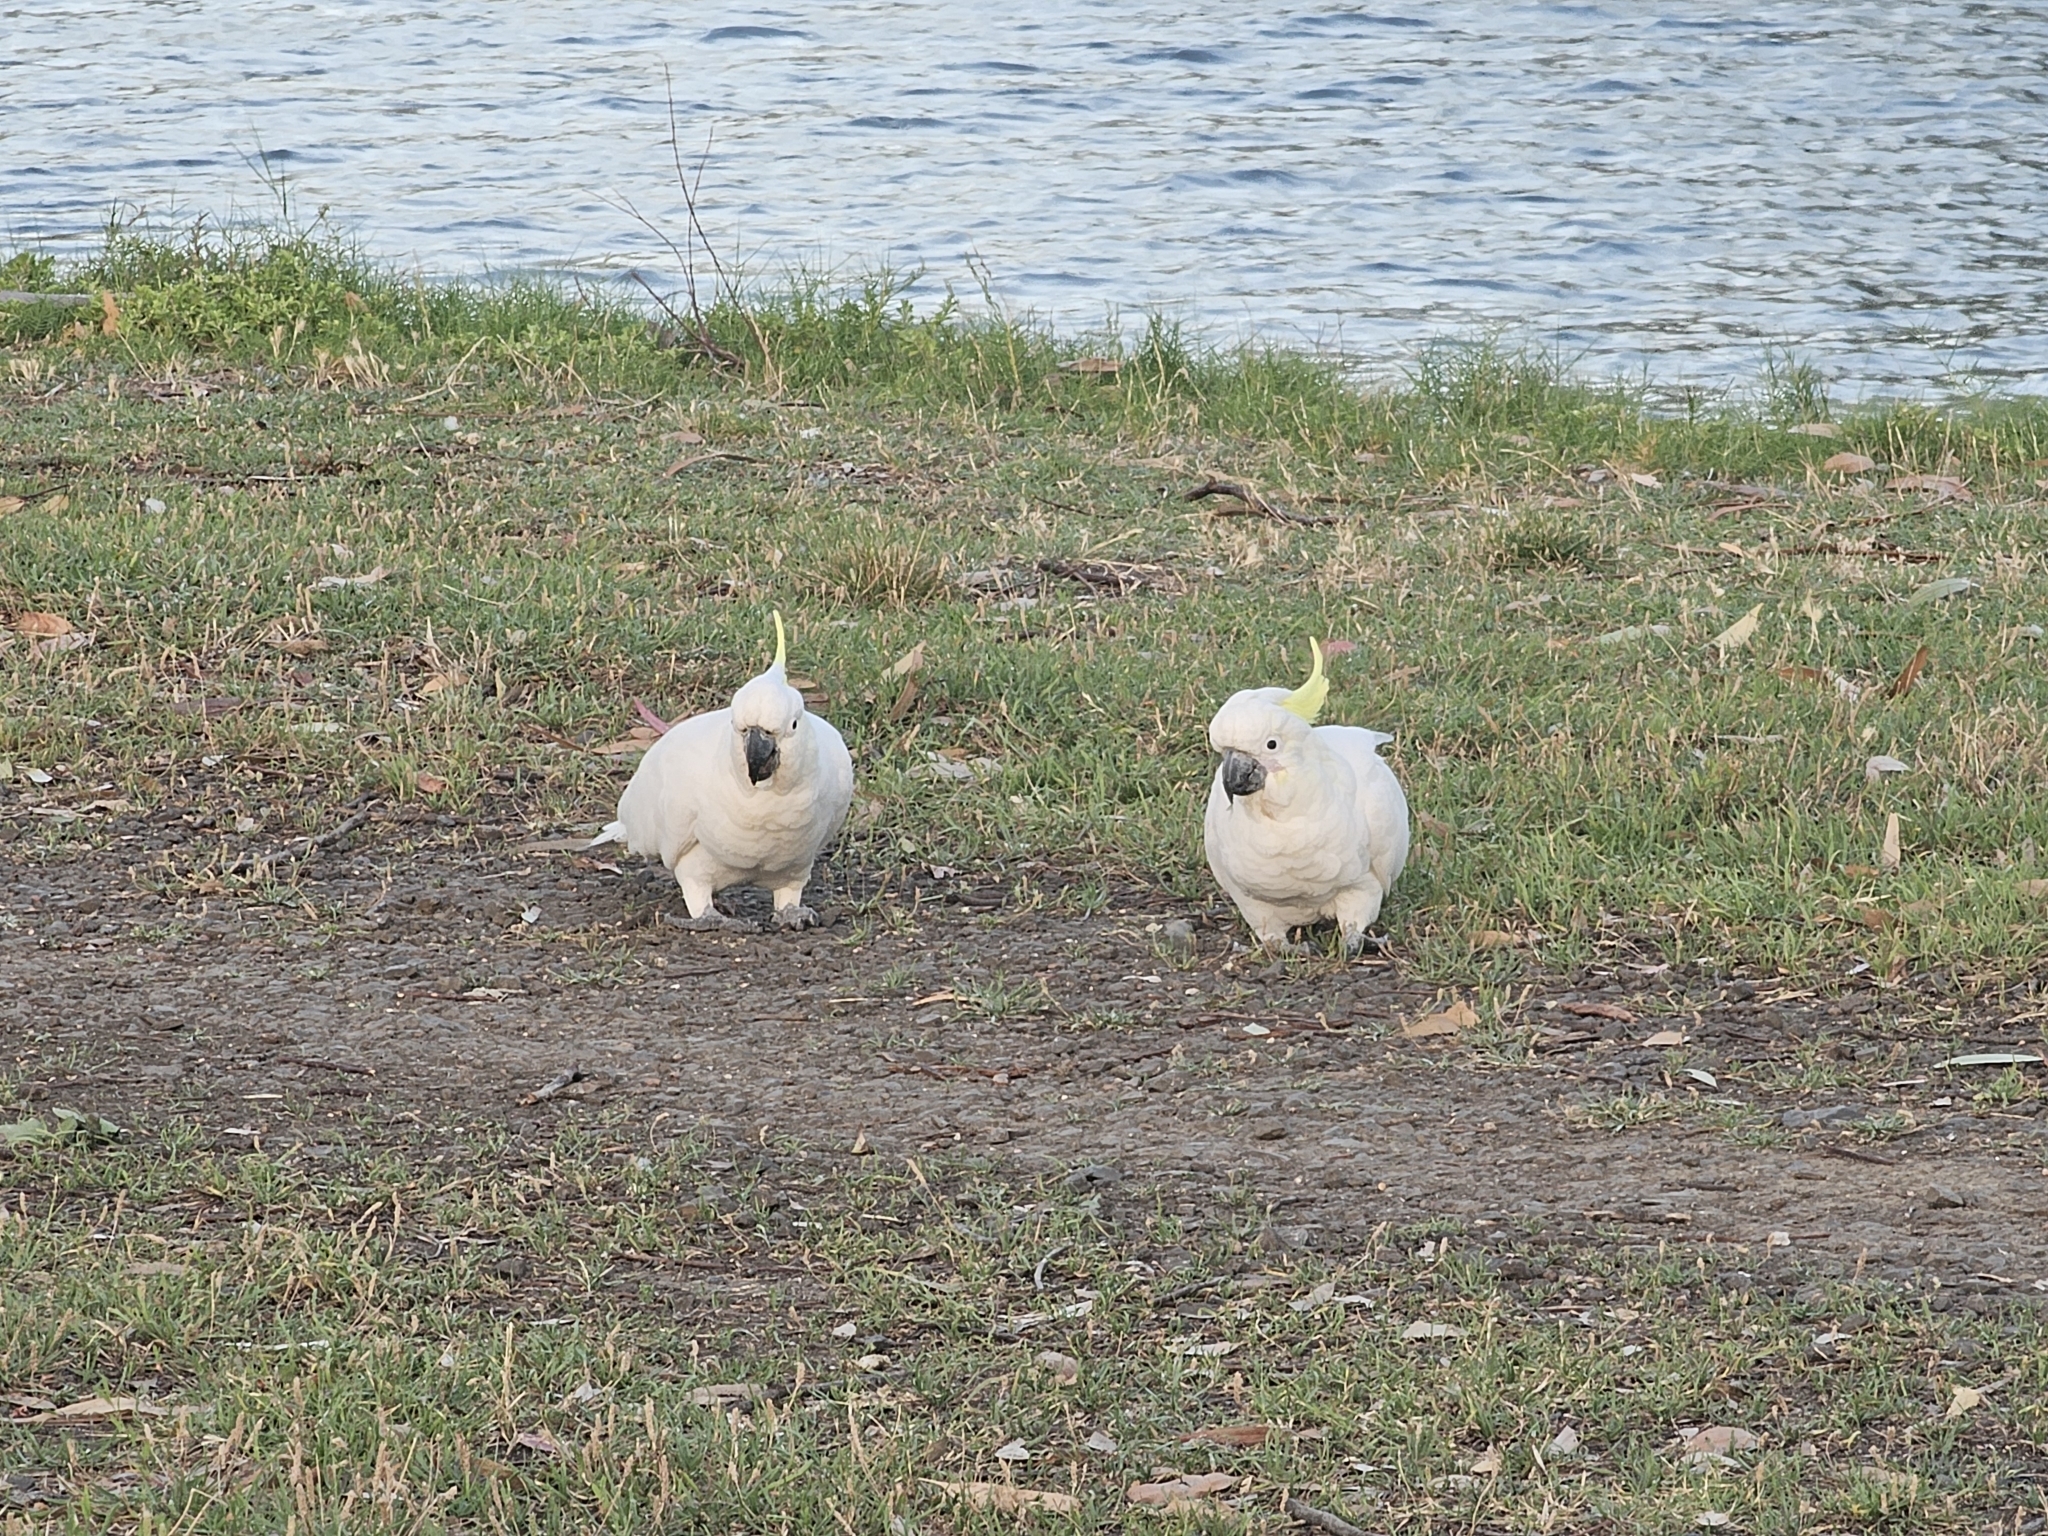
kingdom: Animalia
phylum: Chordata
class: Aves
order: Psittaciformes
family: Psittacidae
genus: Cacatua
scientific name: Cacatua galerita
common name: Sulphur-crested cockatoo
